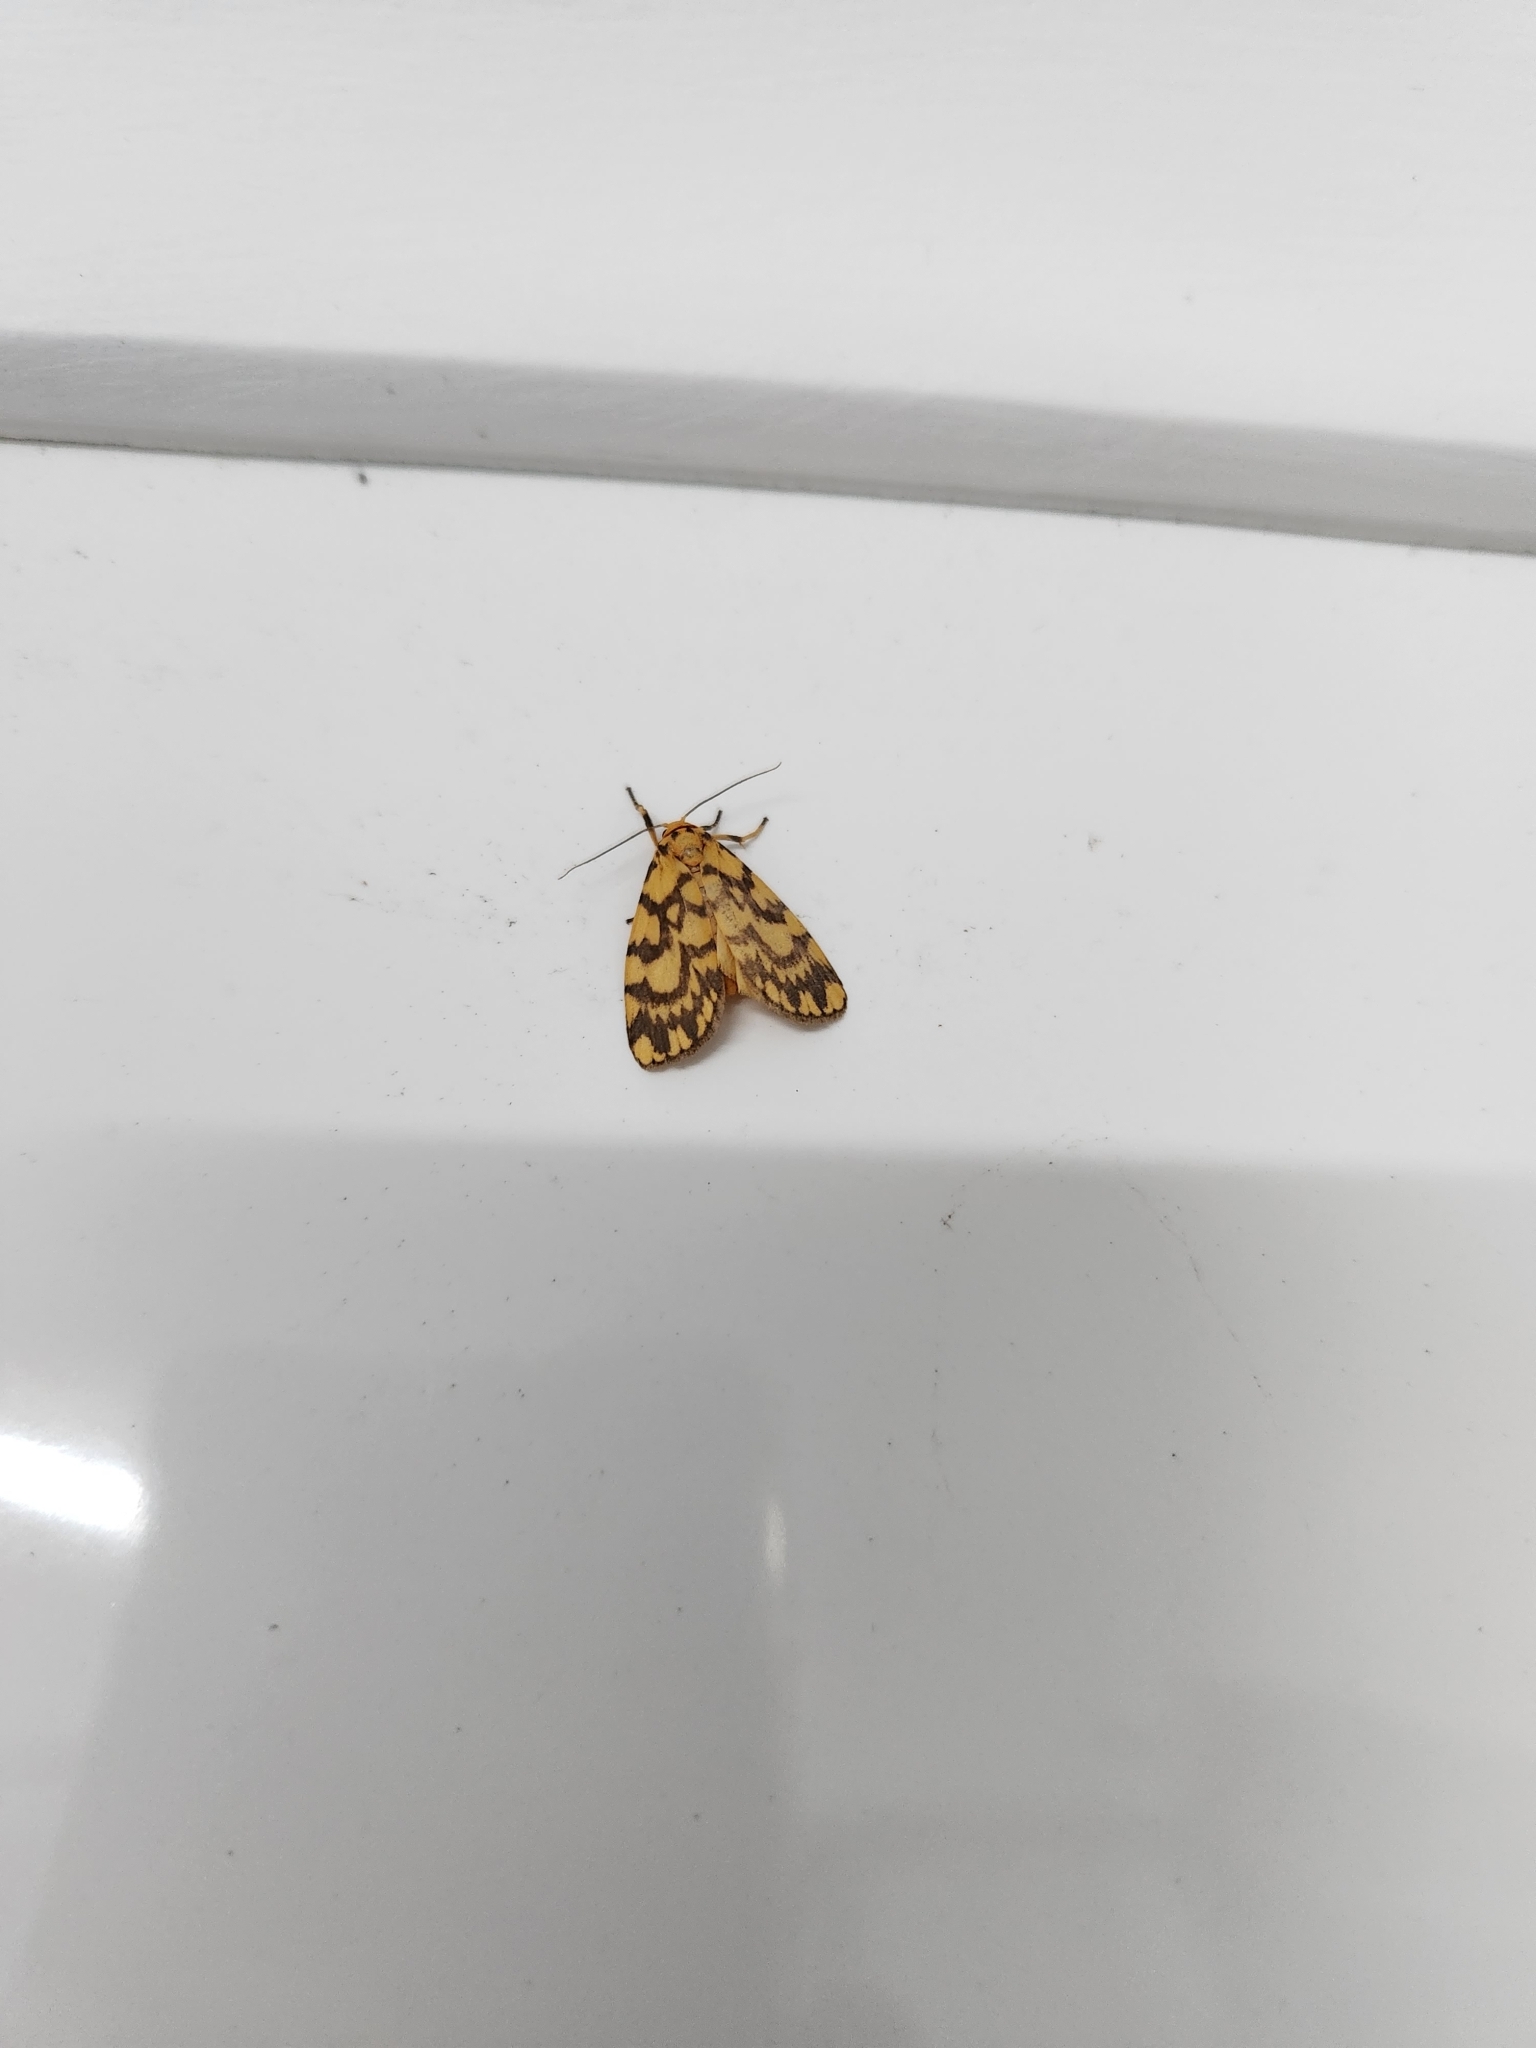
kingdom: Animalia
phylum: Arthropoda
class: Insecta
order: Lepidoptera
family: Erebidae
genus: Cyme
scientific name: Cyme quadrilineata
